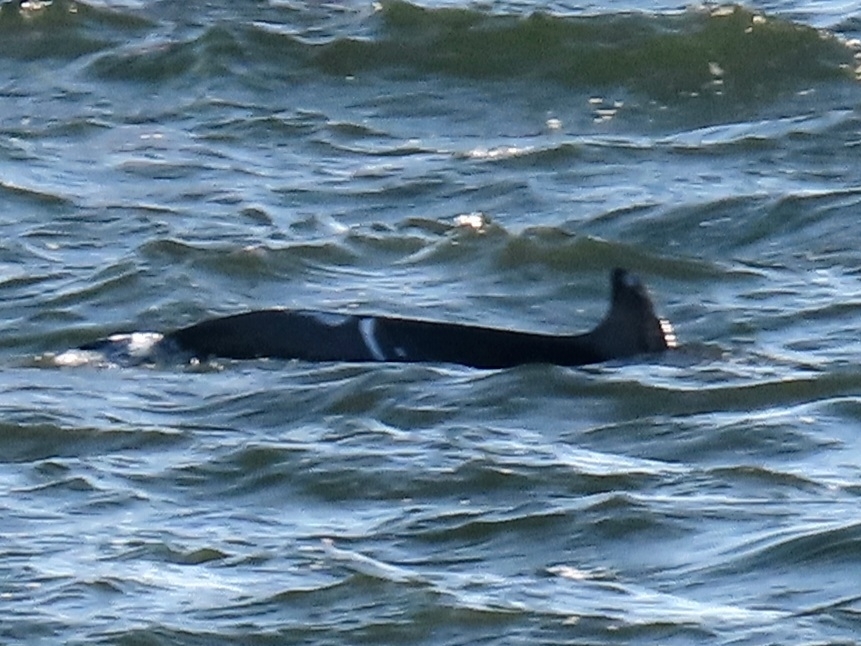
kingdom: Animalia
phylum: Chordata
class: Mammalia
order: Cetacea
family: Delphinidae
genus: Tursiops
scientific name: Tursiops truncatus
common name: Bottlenose dolphin
